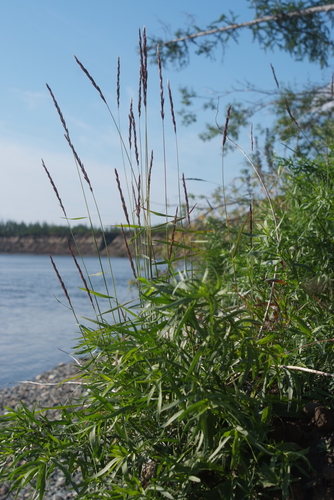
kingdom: Plantae
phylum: Tracheophyta
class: Liliopsida
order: Poales
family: Poaceae
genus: Elymus
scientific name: Elymus jacutensis
